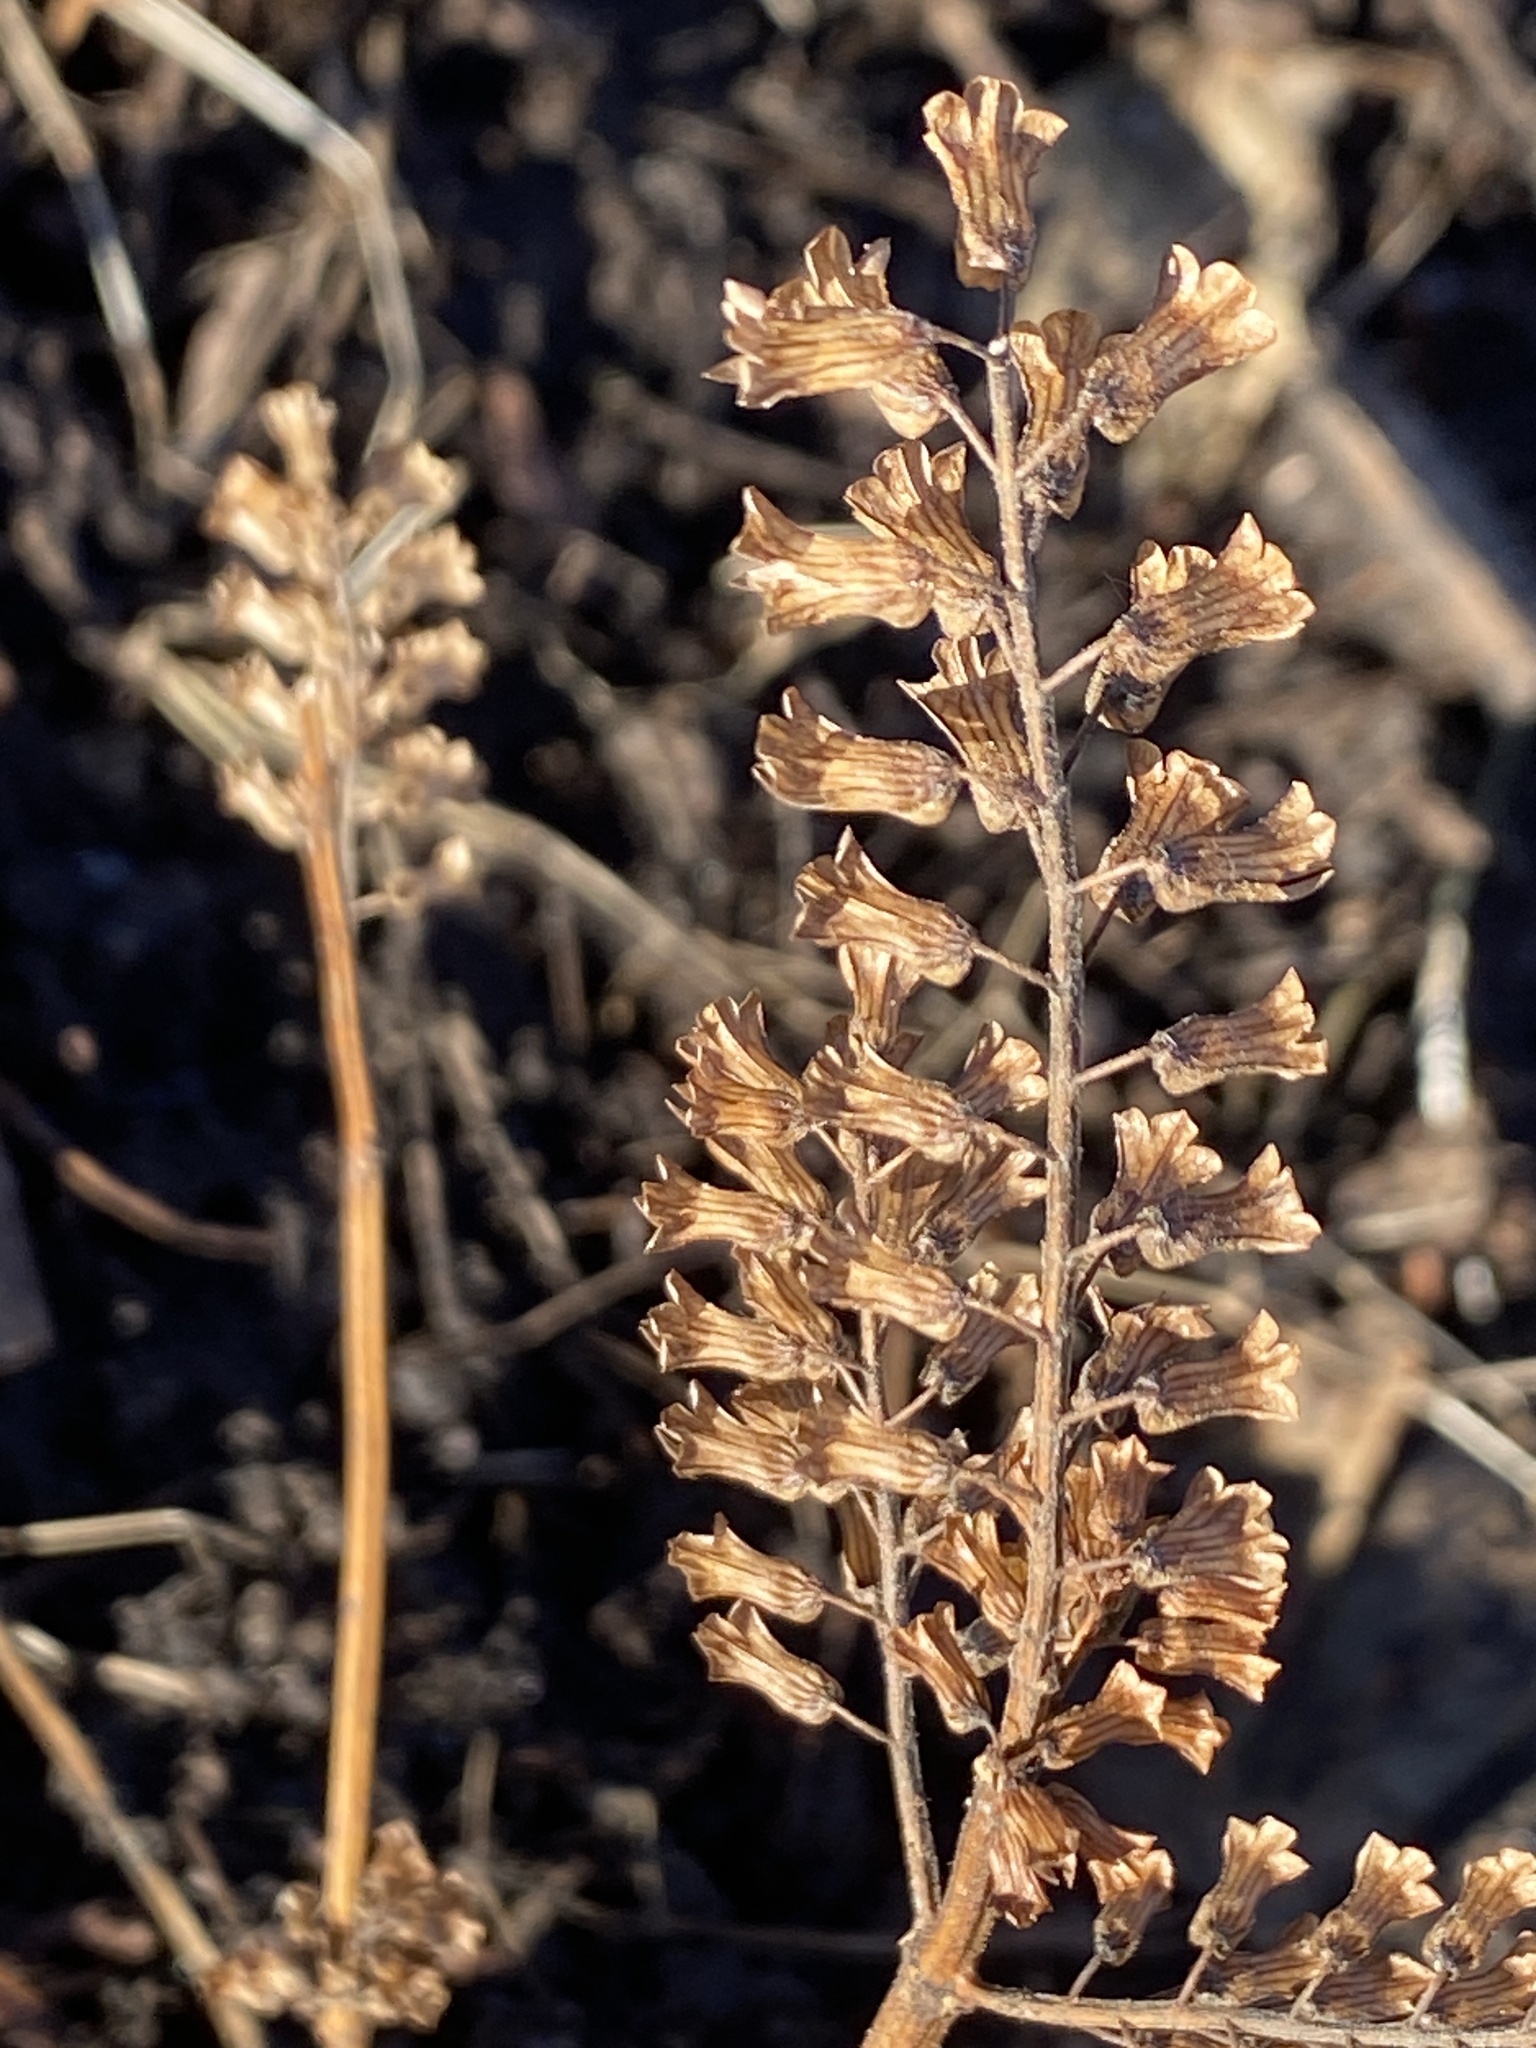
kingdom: Plantae
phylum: Tracheophyta
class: Magnoliopsida
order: Lamiales
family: Lamiaceae
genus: Perilla
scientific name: Perilla frutescens
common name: Perilla
